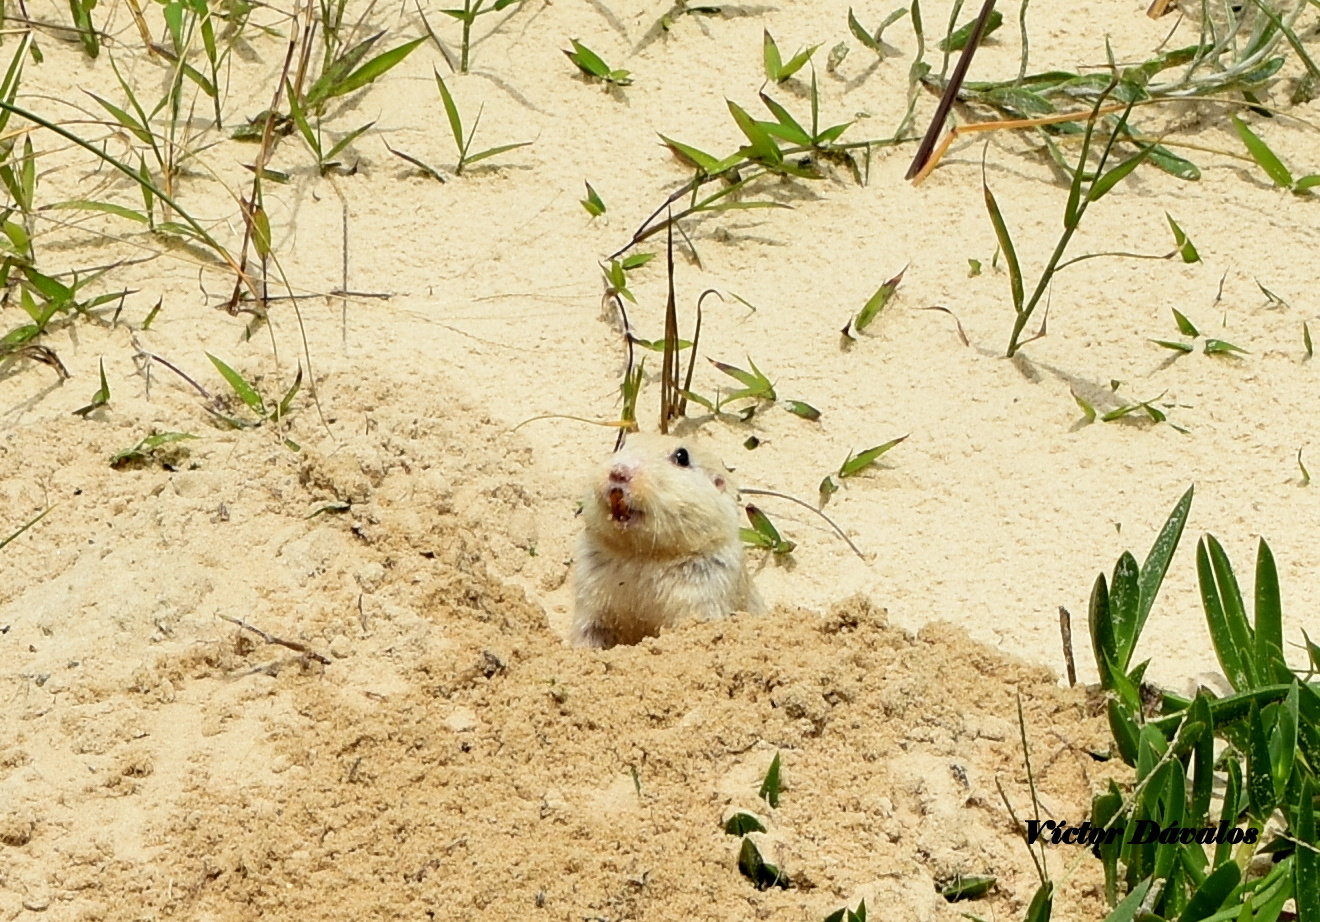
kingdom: Animalia
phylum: Chordata
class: Mammalia
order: Rodentia
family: Ctenomyidae
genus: Ctenomys
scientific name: Ctenomys flamarioni
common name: Tuco-tuco of the dunes
